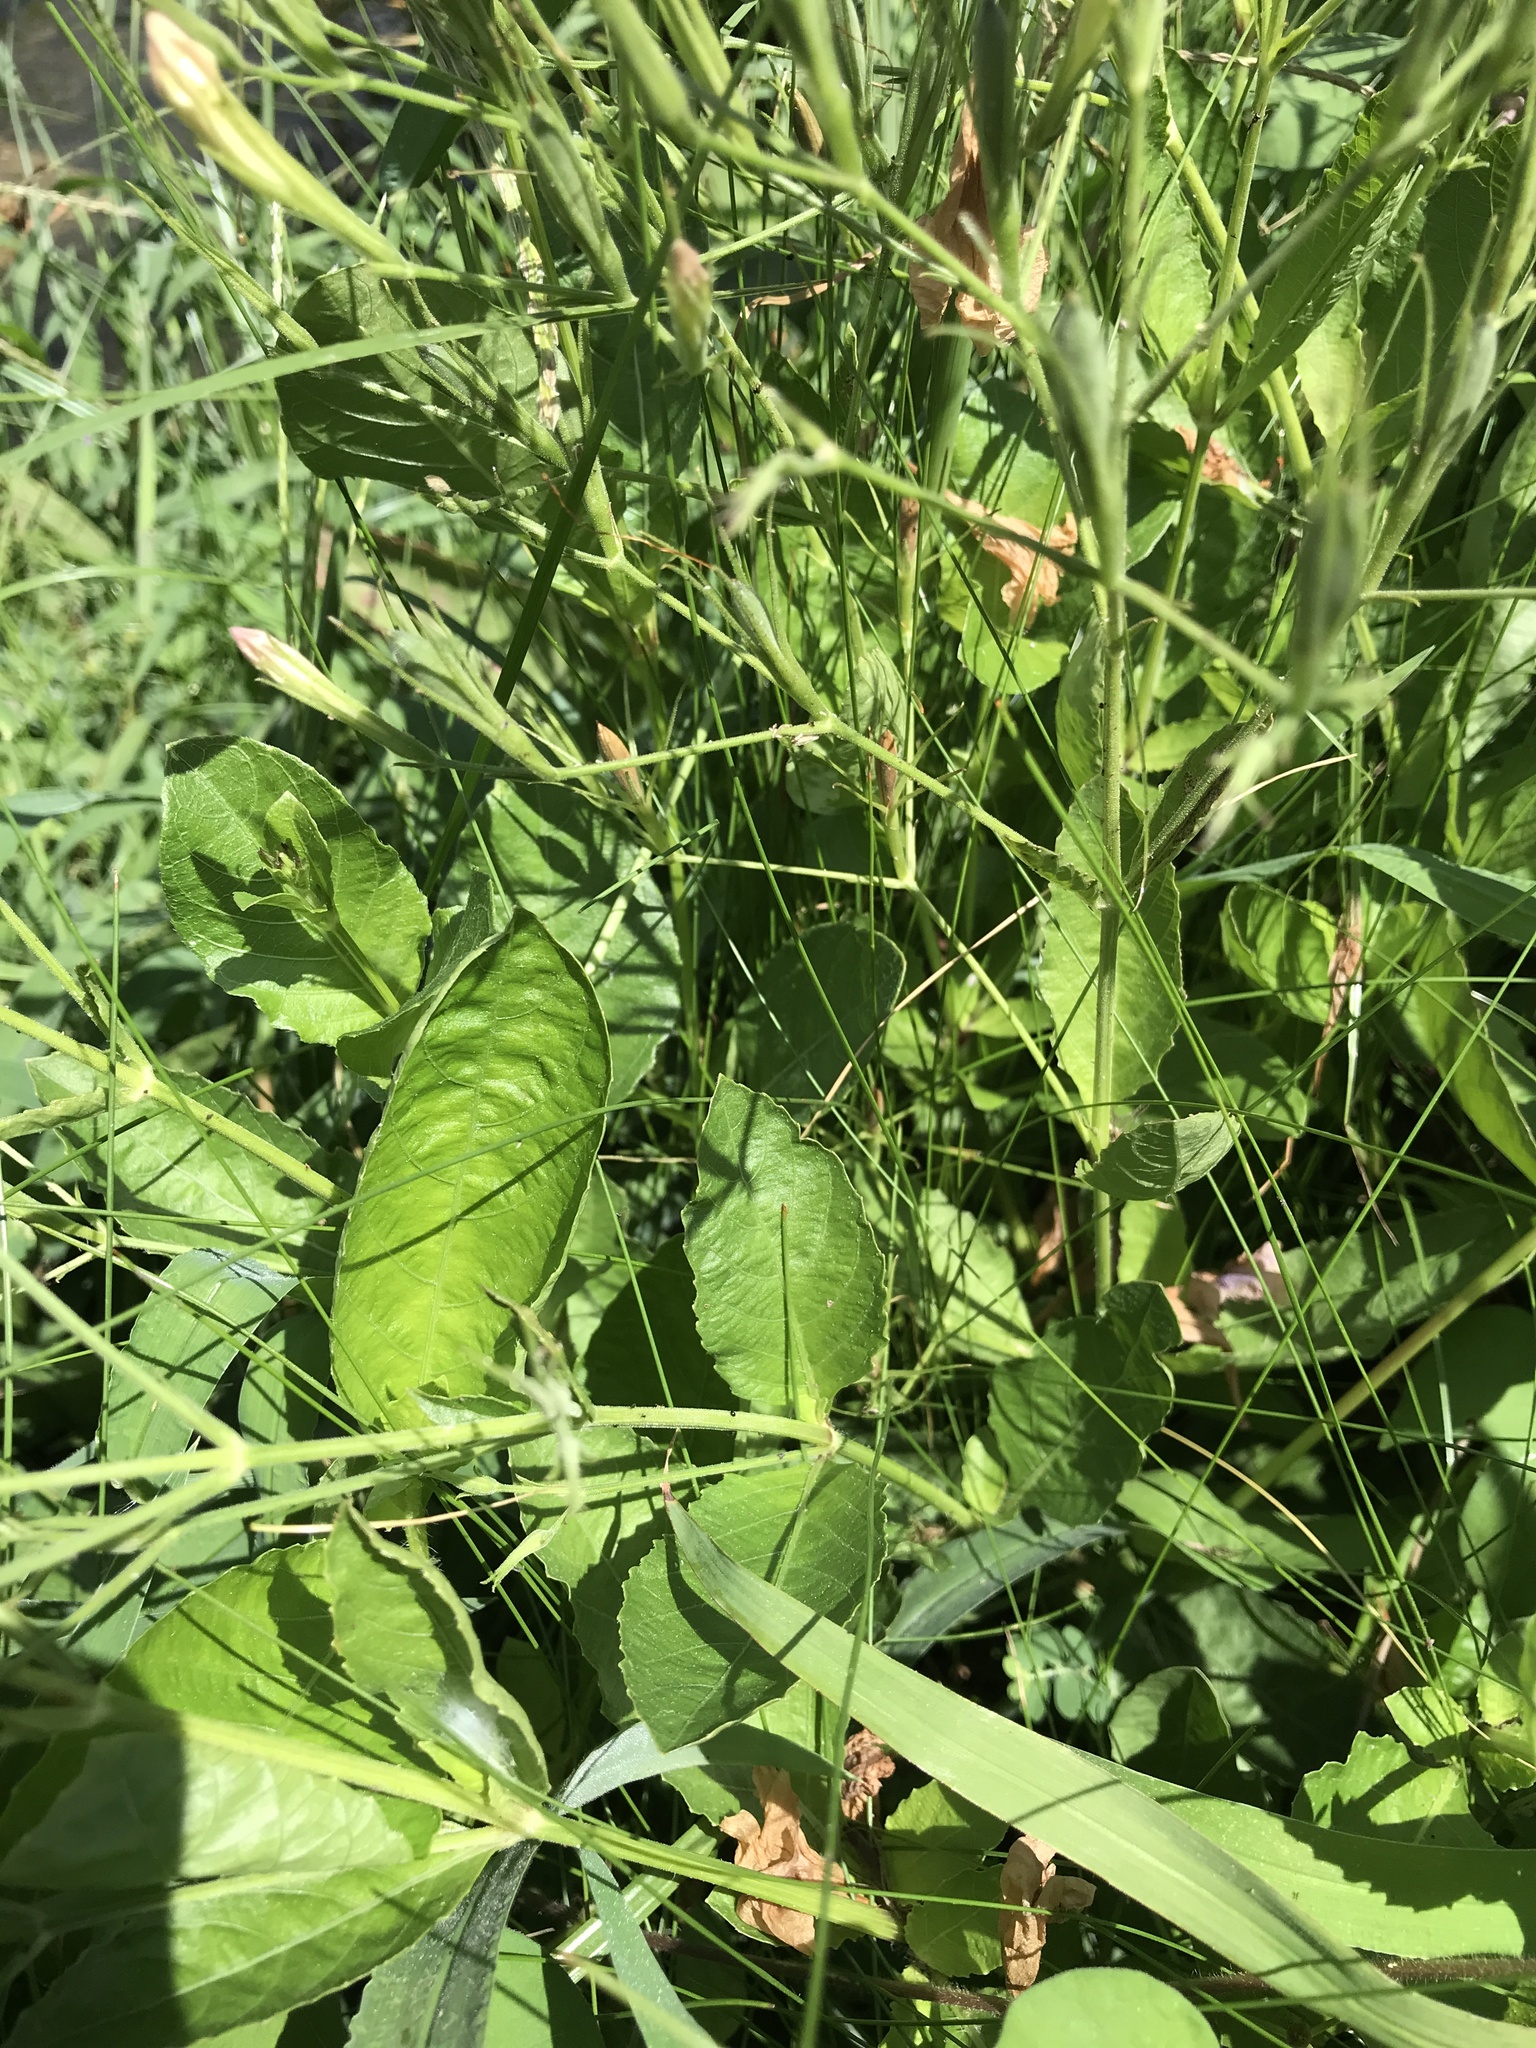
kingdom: Plantae
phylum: Tracheophyta
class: Magnoliopsida
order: Lamiales
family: Acanthaceae
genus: Ruellia
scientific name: Ruellia ciliatiflora
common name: Hairyflower wild petunia
